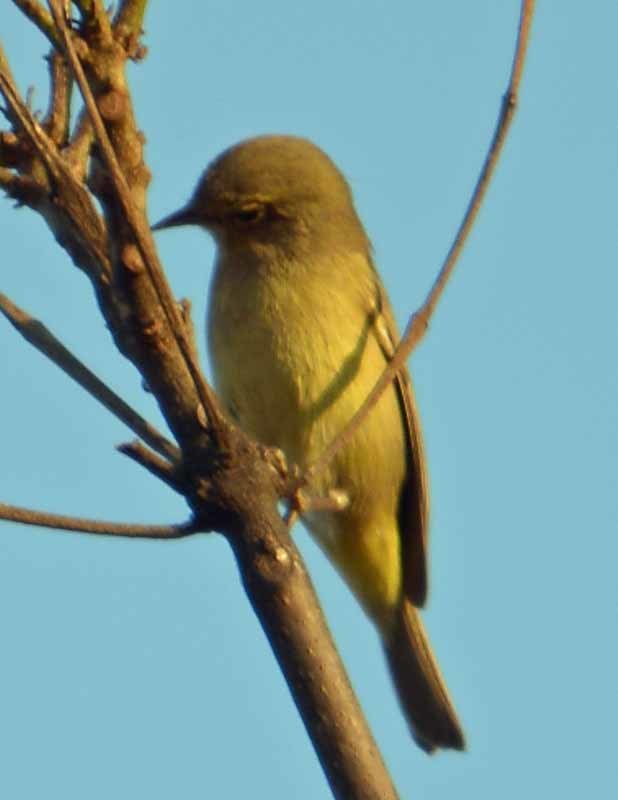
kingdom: Animalia
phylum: Chordata
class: Aves
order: Passeriformes
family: Parulidae
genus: Leiothlypis
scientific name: Leiothlypis celata
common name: Orange-crowned warbler
